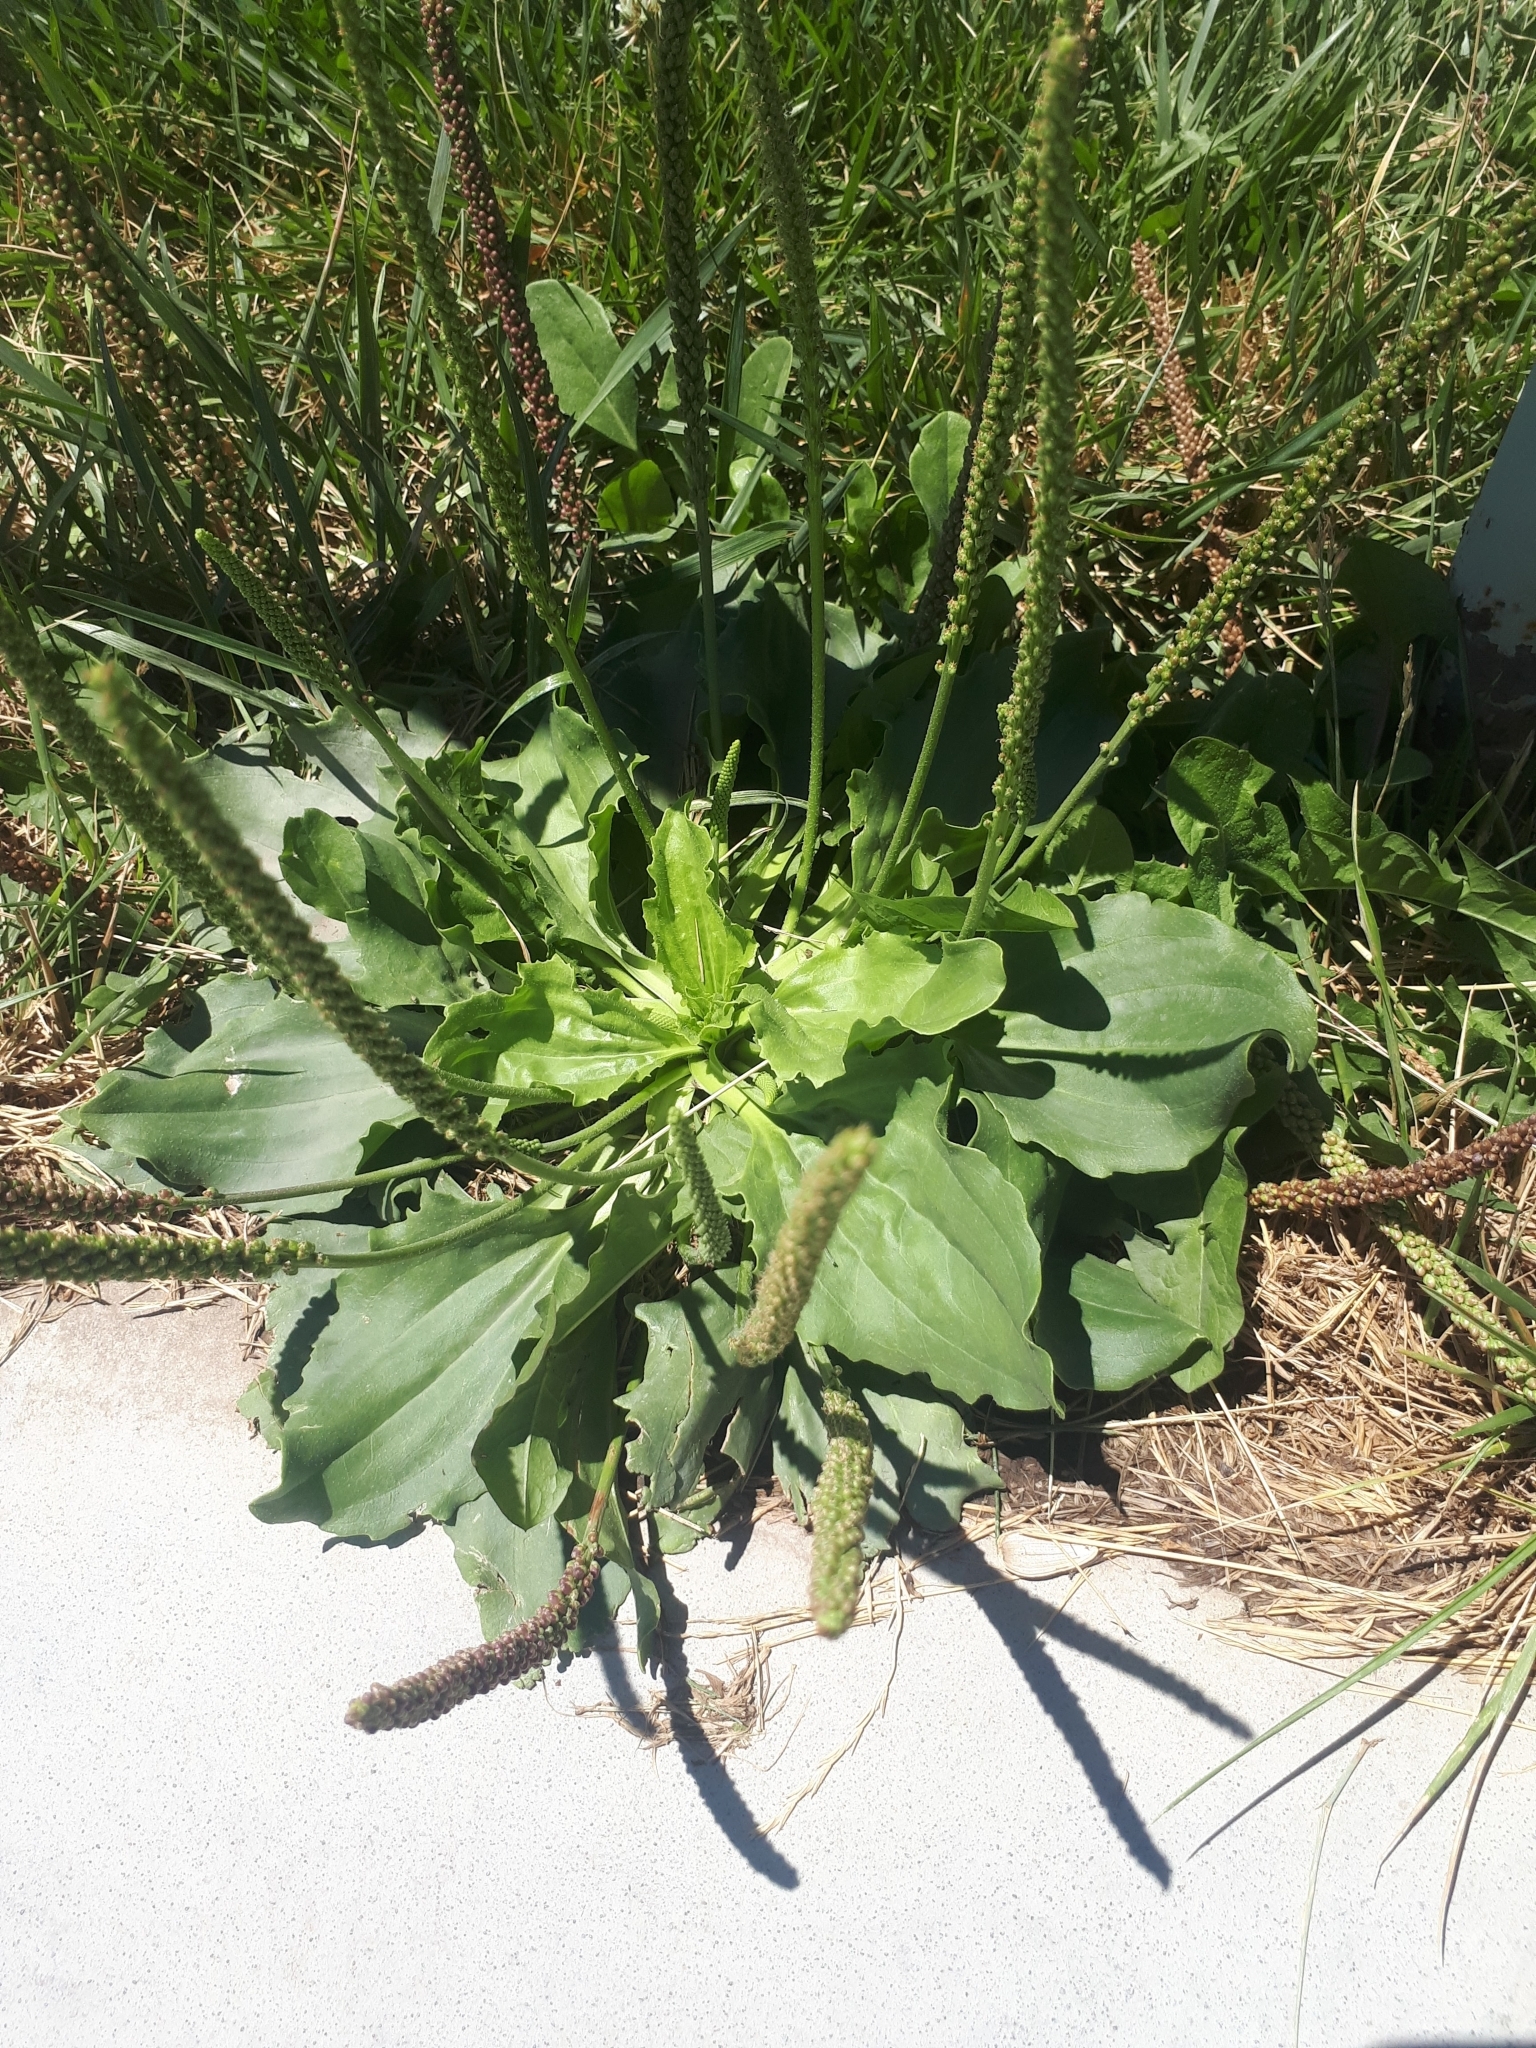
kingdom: Plantae
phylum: Tracheophyta
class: Magnoliopsida
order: Lamiales
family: Plantaginaceae
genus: Plantago
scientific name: Plantago major
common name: Common plantain
